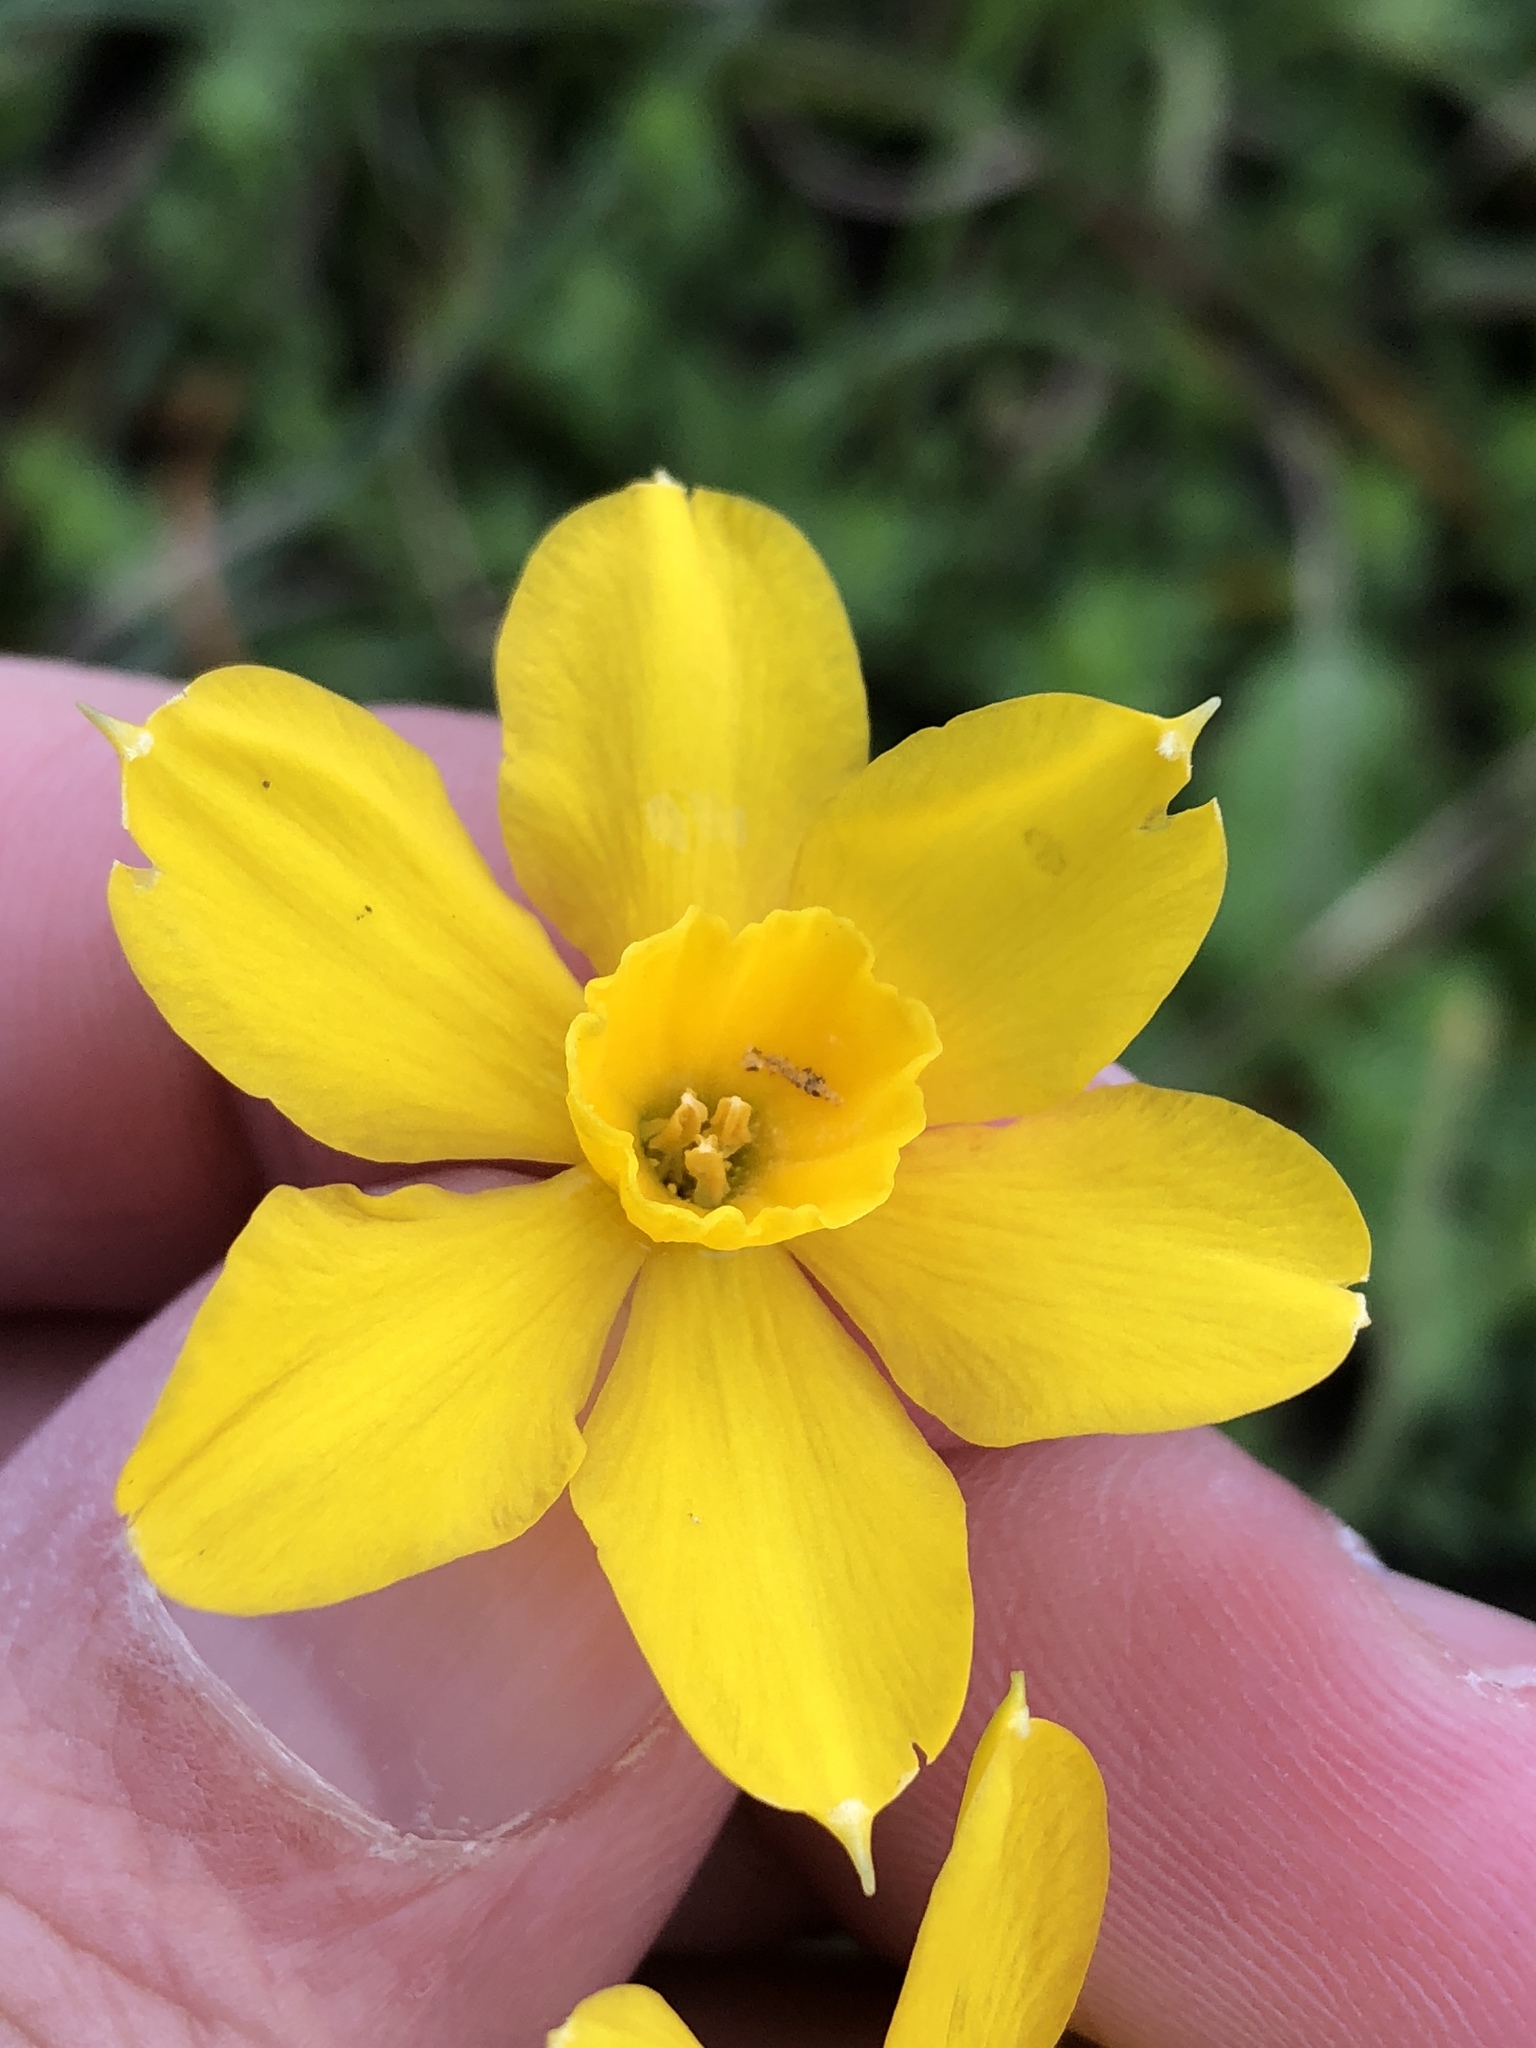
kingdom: Plantae
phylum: Tracheophyta
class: Liliopsida
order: Asparagales
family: Amaryllidaceae
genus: Narcissus
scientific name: Narcissus jonquilla
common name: Jonquil
